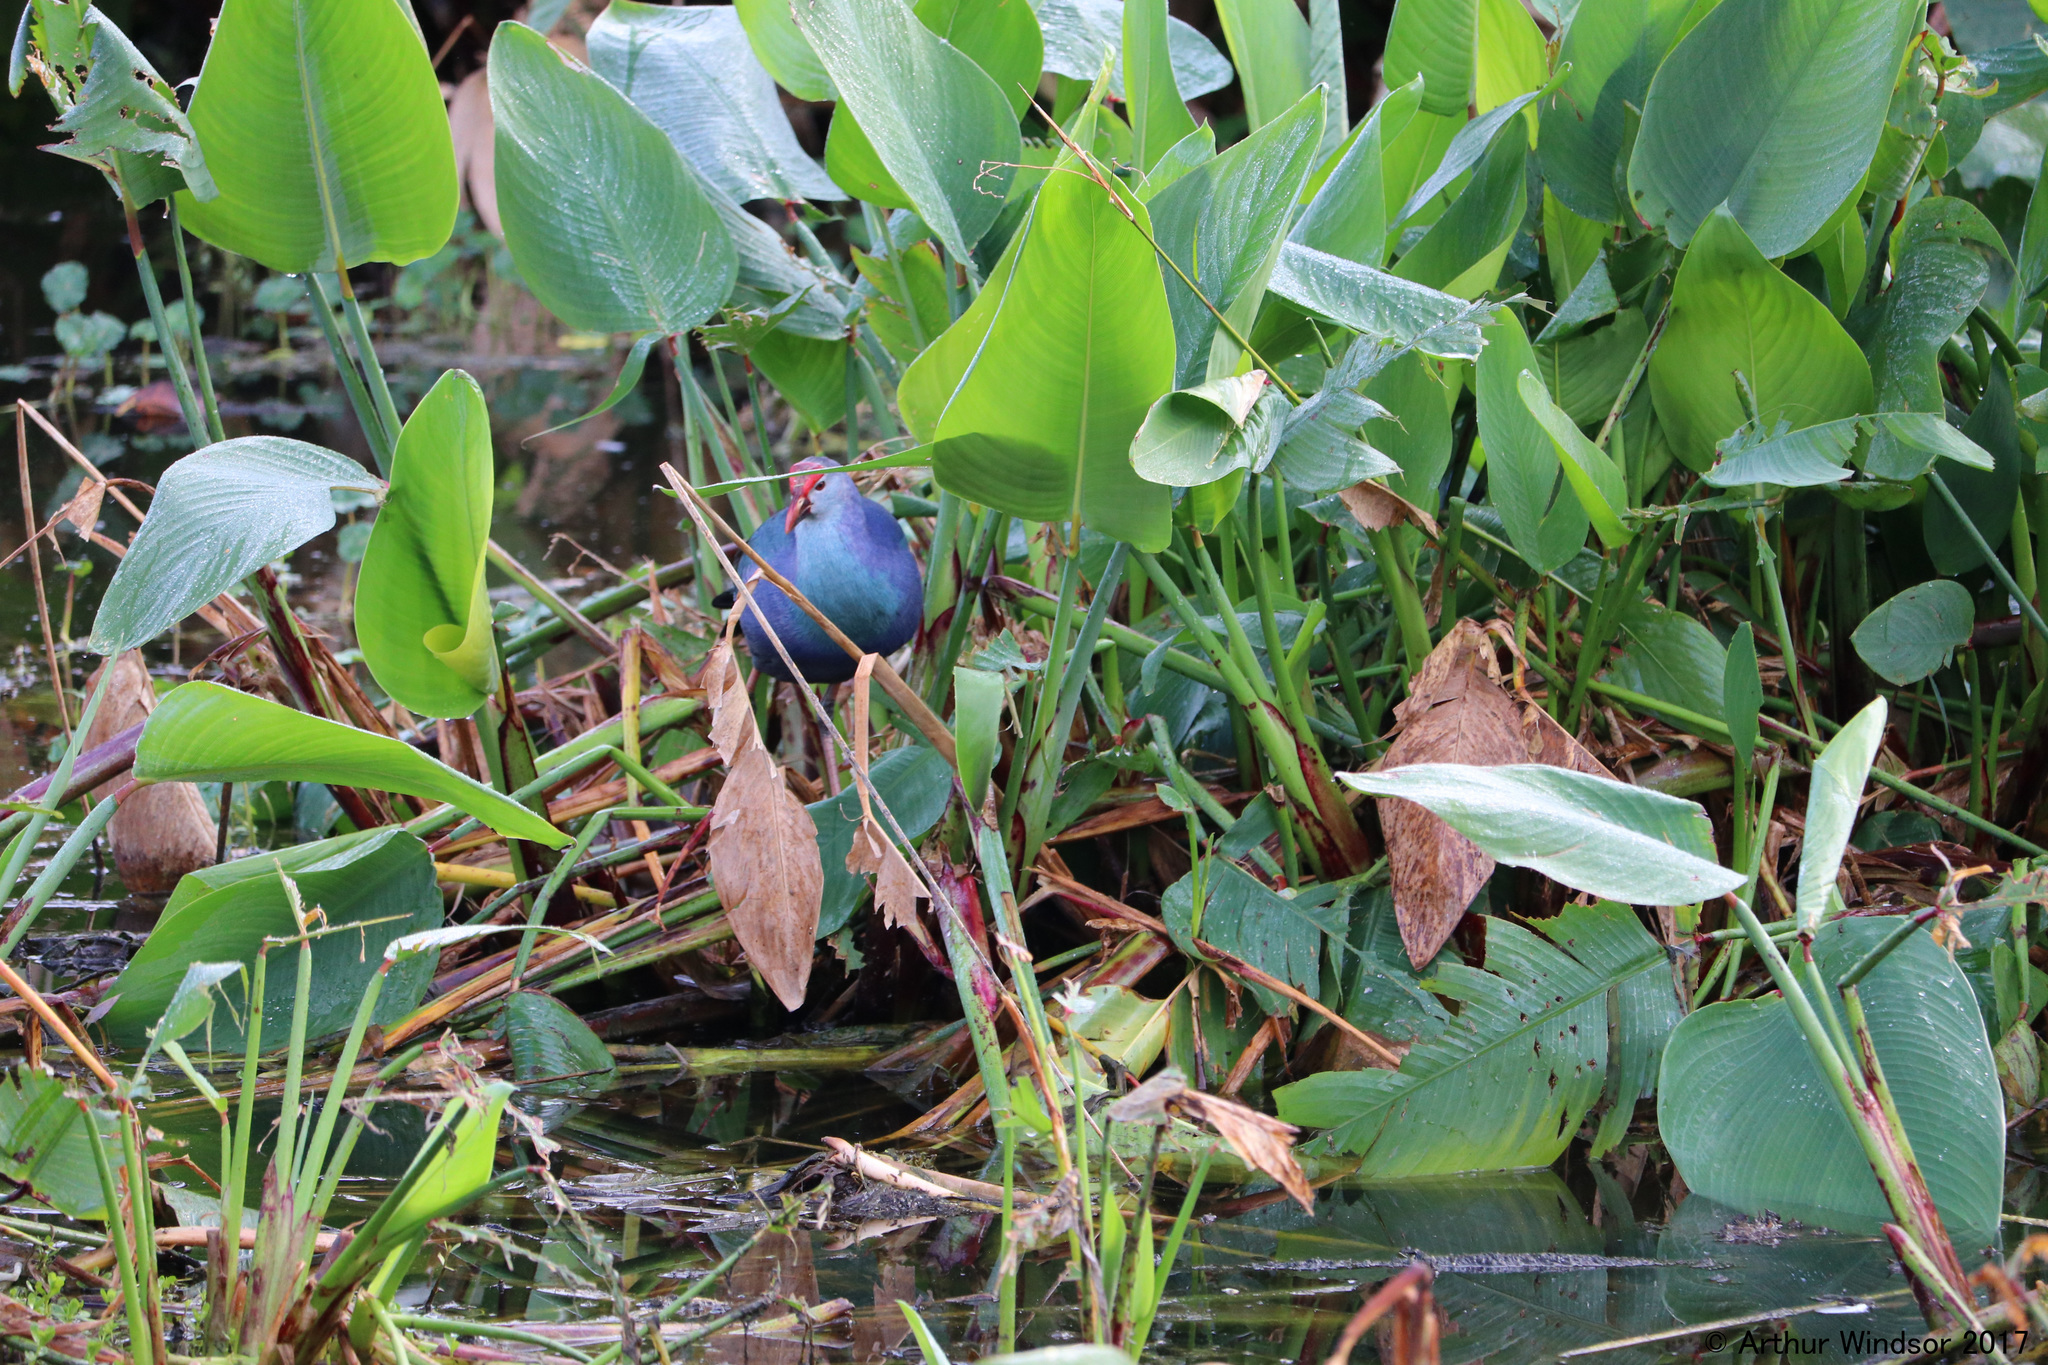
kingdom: Animalia
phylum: Chordata
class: Aves
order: Gruiformes
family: Rallidae
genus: Porphyrio
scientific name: Porphyrio porphyrio
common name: Purple swamphen
